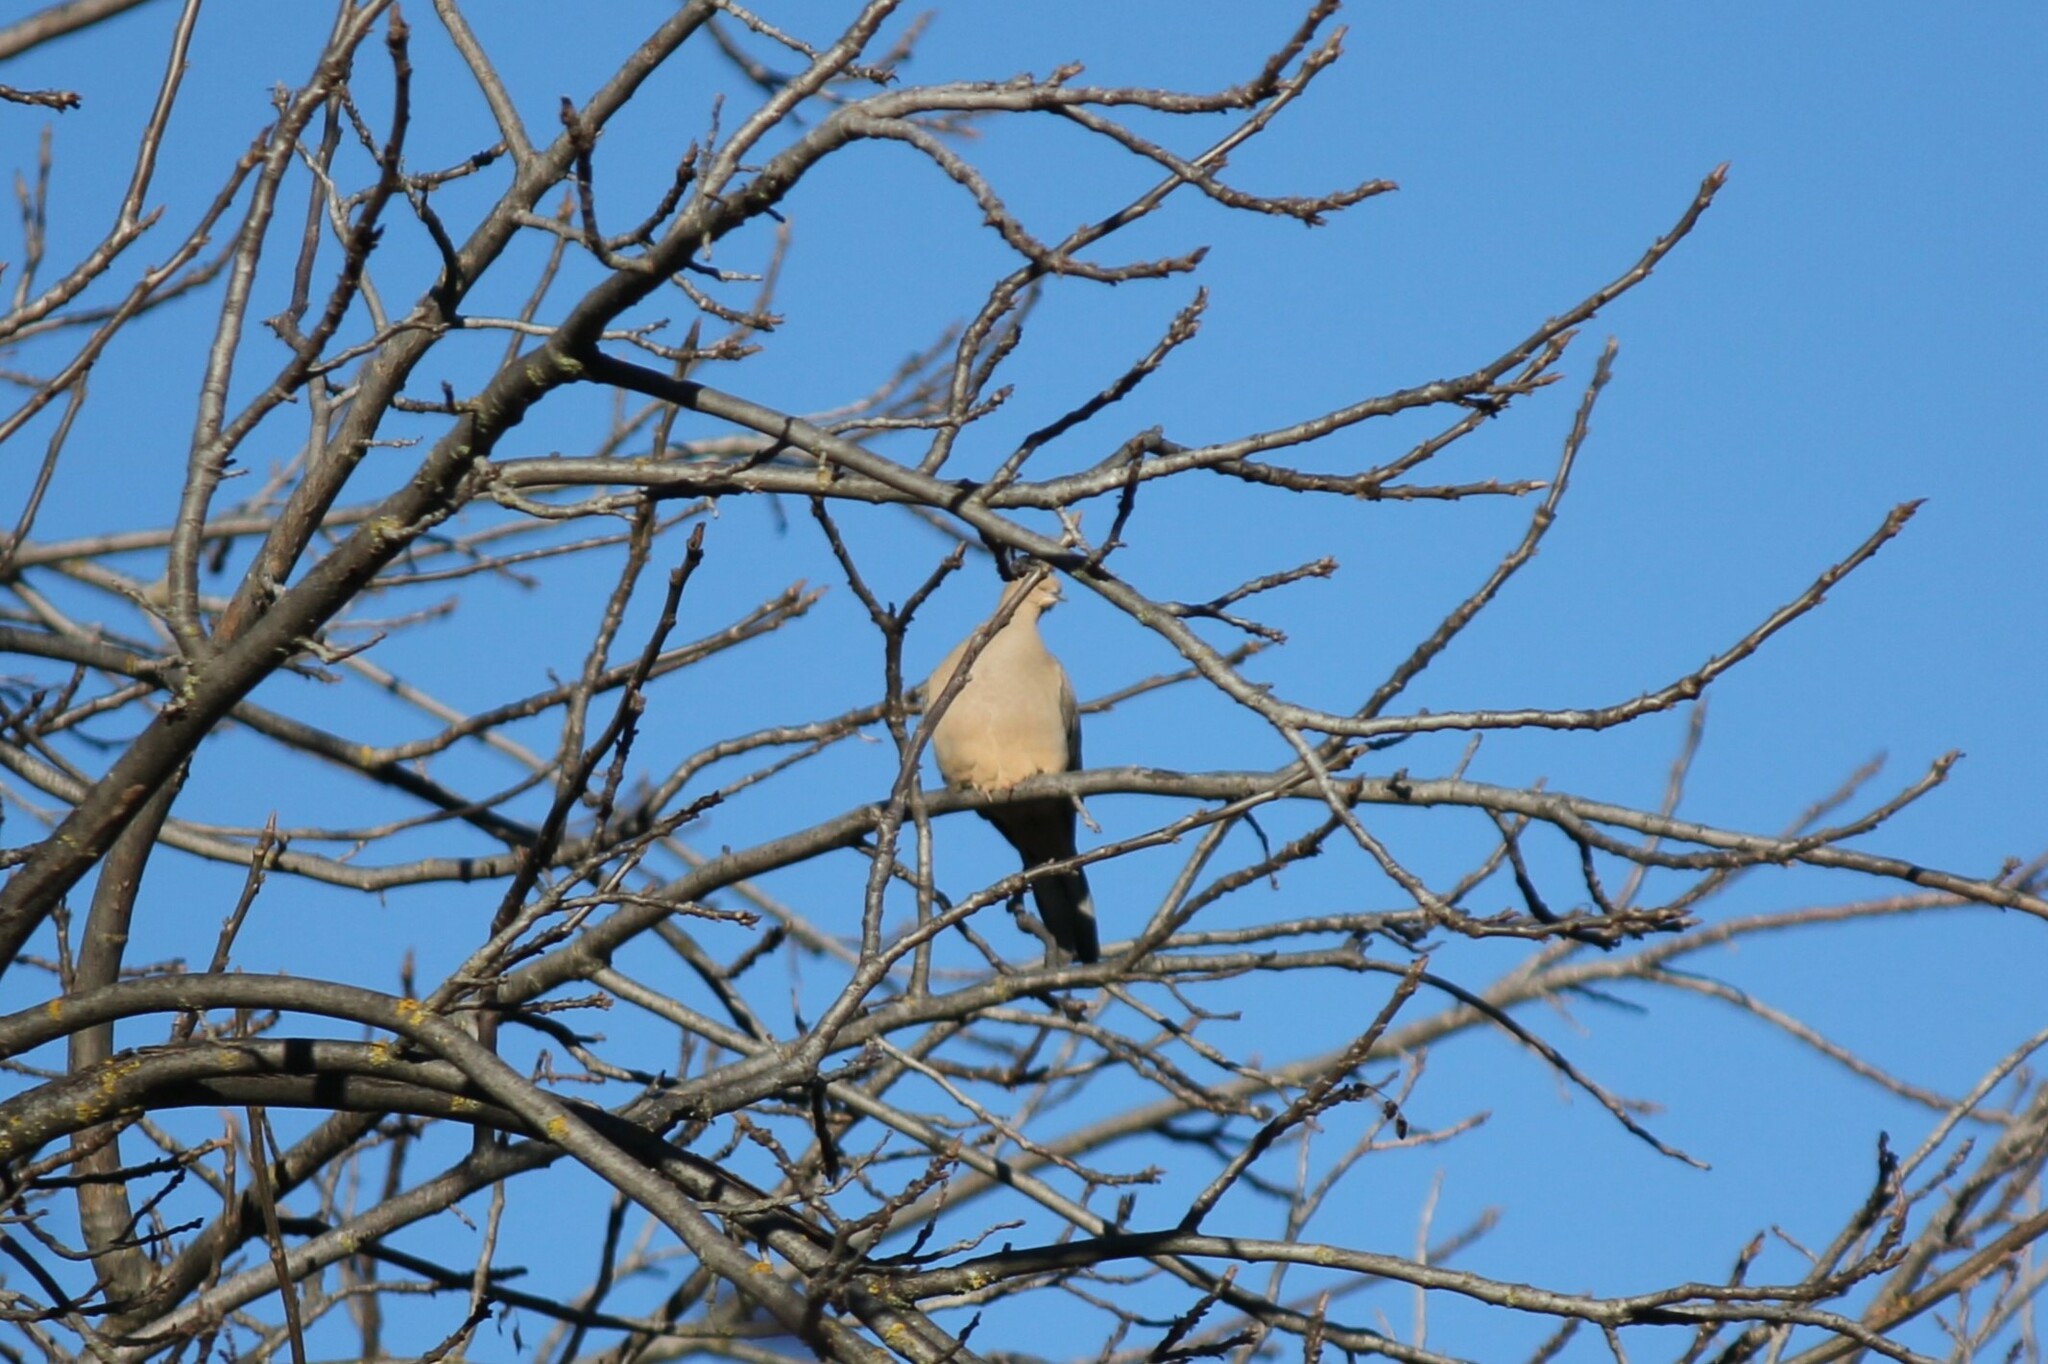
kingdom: Animalia
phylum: Chordata
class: Aves
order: Columbiformes
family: Columbidae
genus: Zenaida
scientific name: Zenaida macroura
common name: Mourning dove
